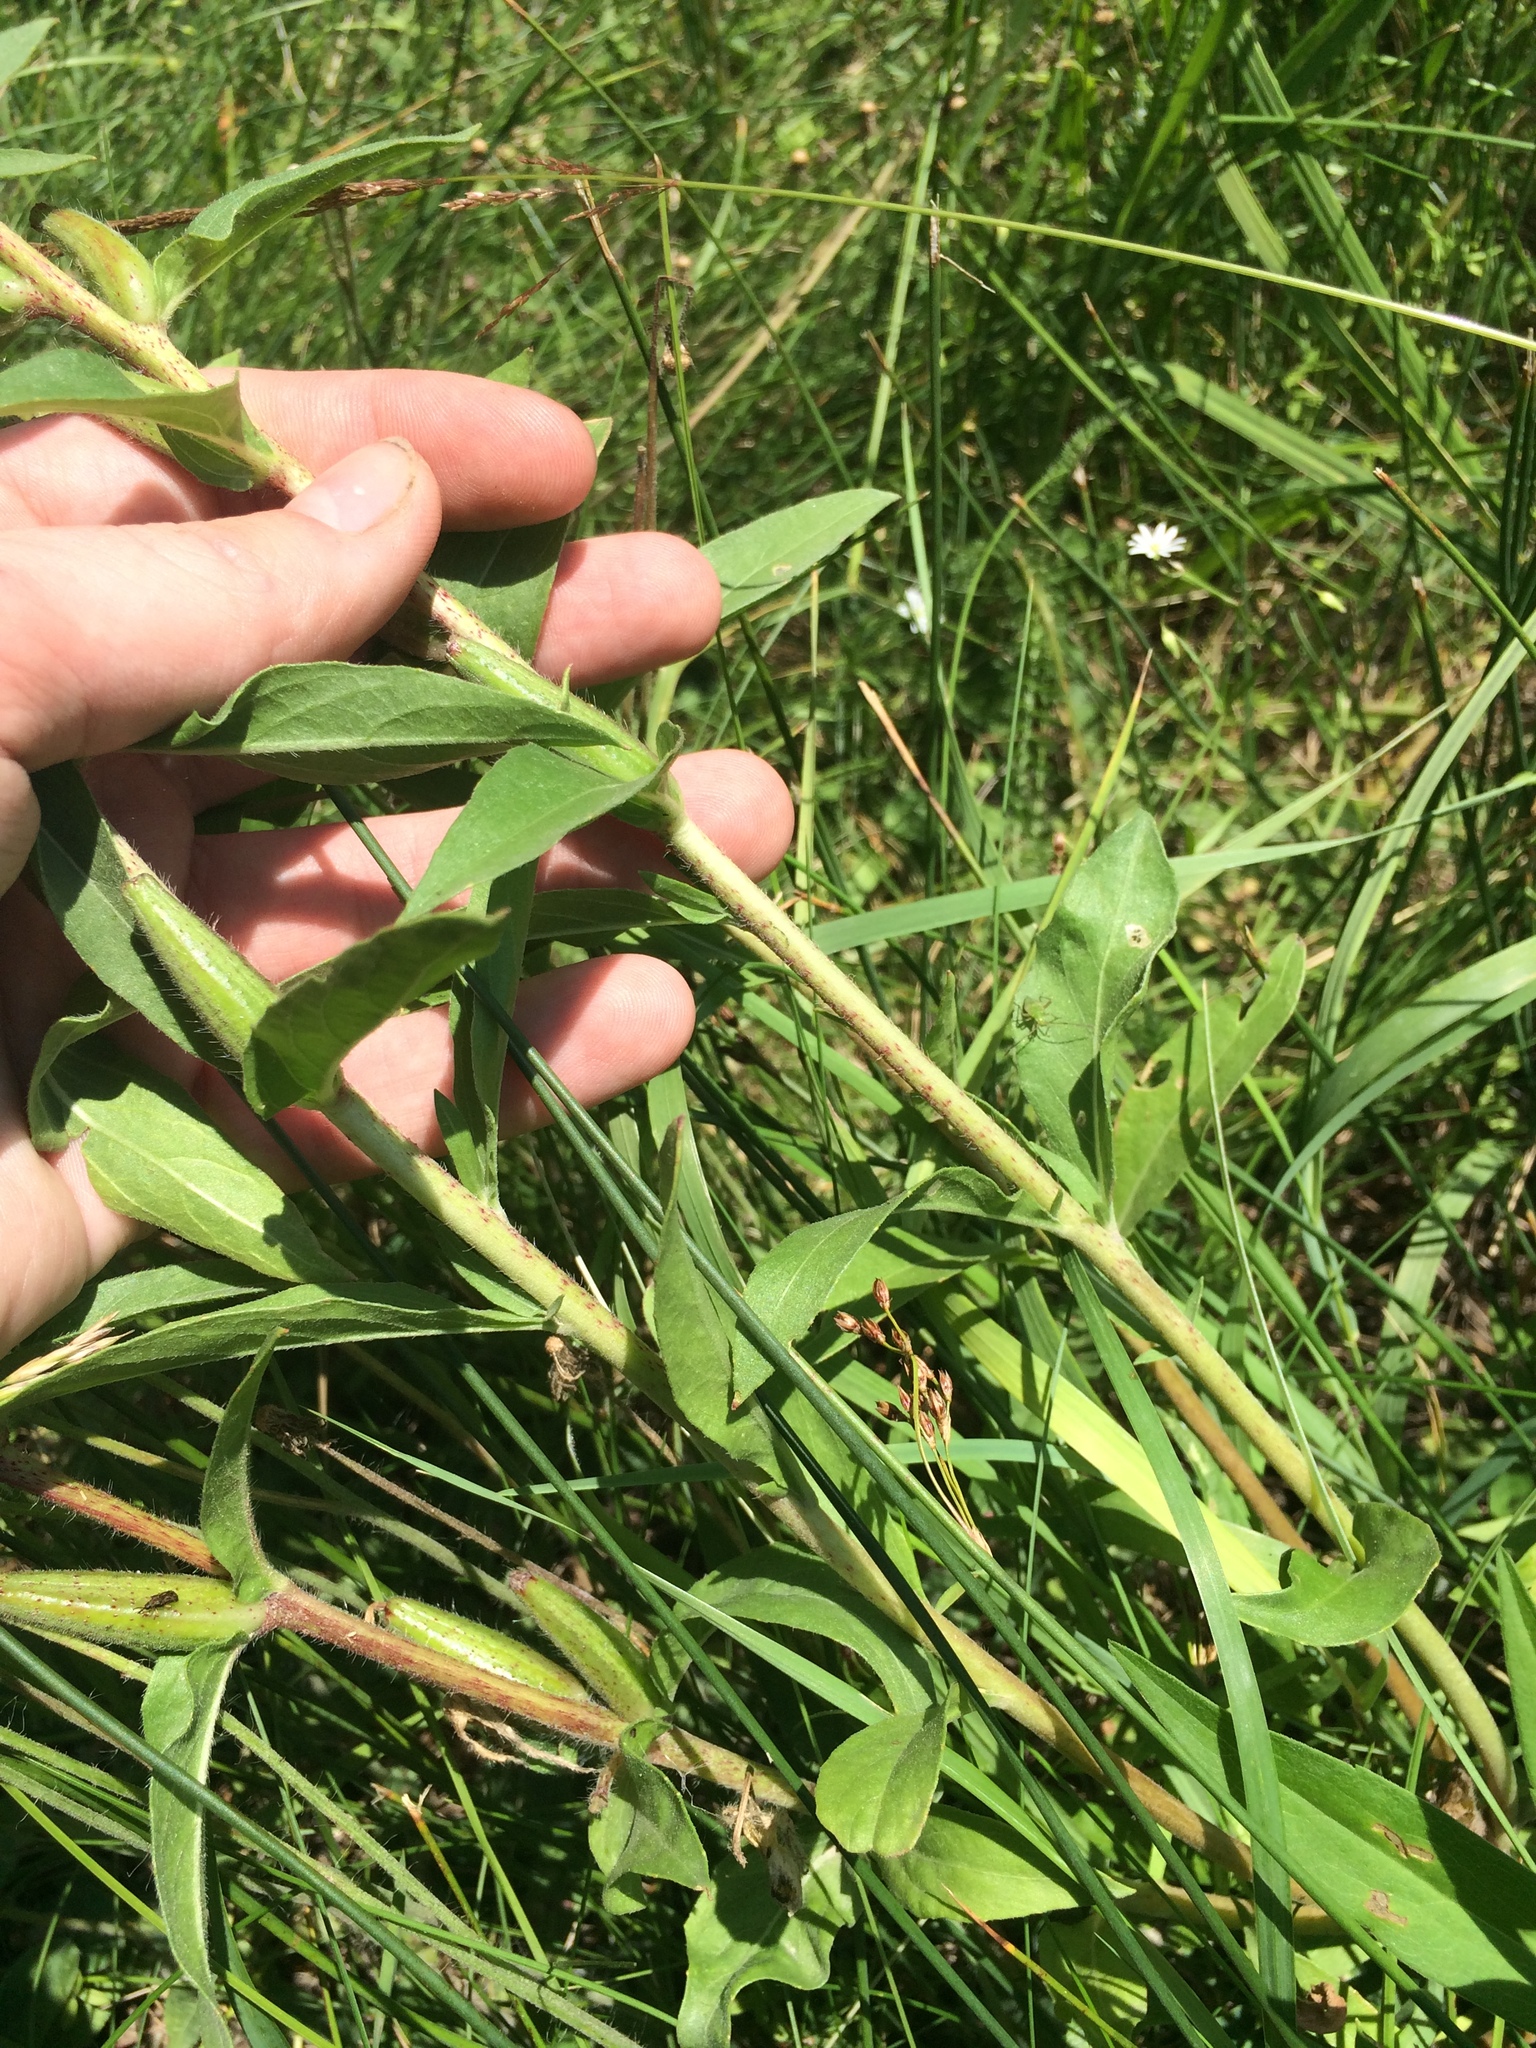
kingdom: Plantae
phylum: Tracheophyta
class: Magnoliopsida
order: Myrtales
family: Onagraceae
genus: Oenothera
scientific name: Oenothera biennis
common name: Common evening-primrose
